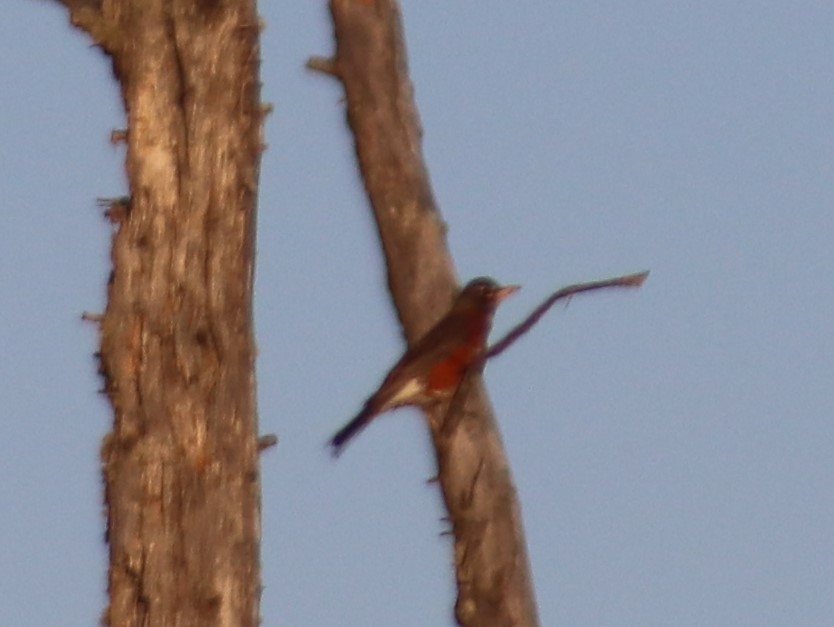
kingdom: Animalia
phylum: Chordata
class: Aves
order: Passeriformes
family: Turdidae
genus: Turdus
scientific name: Turdus migratorius
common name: American robin
